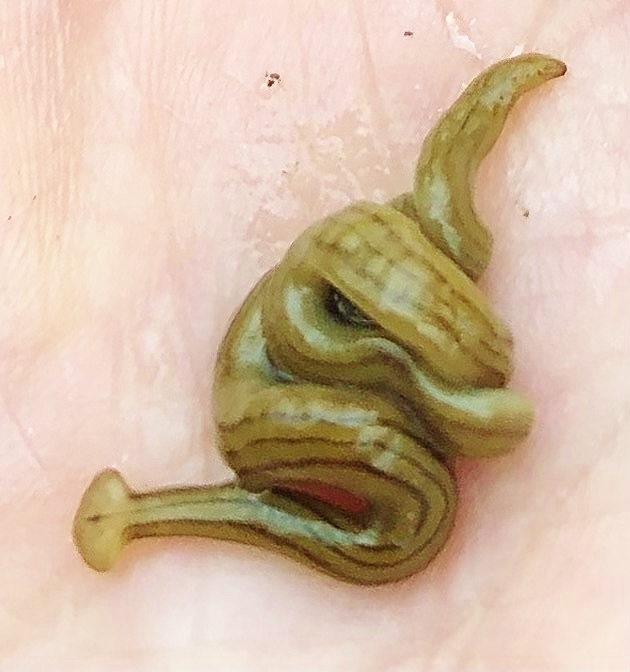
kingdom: Animalia
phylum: Platyhelminthes
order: Tricladida
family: Geoplanidae
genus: Diversibipalium
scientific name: Diversibipalium multilineatum
